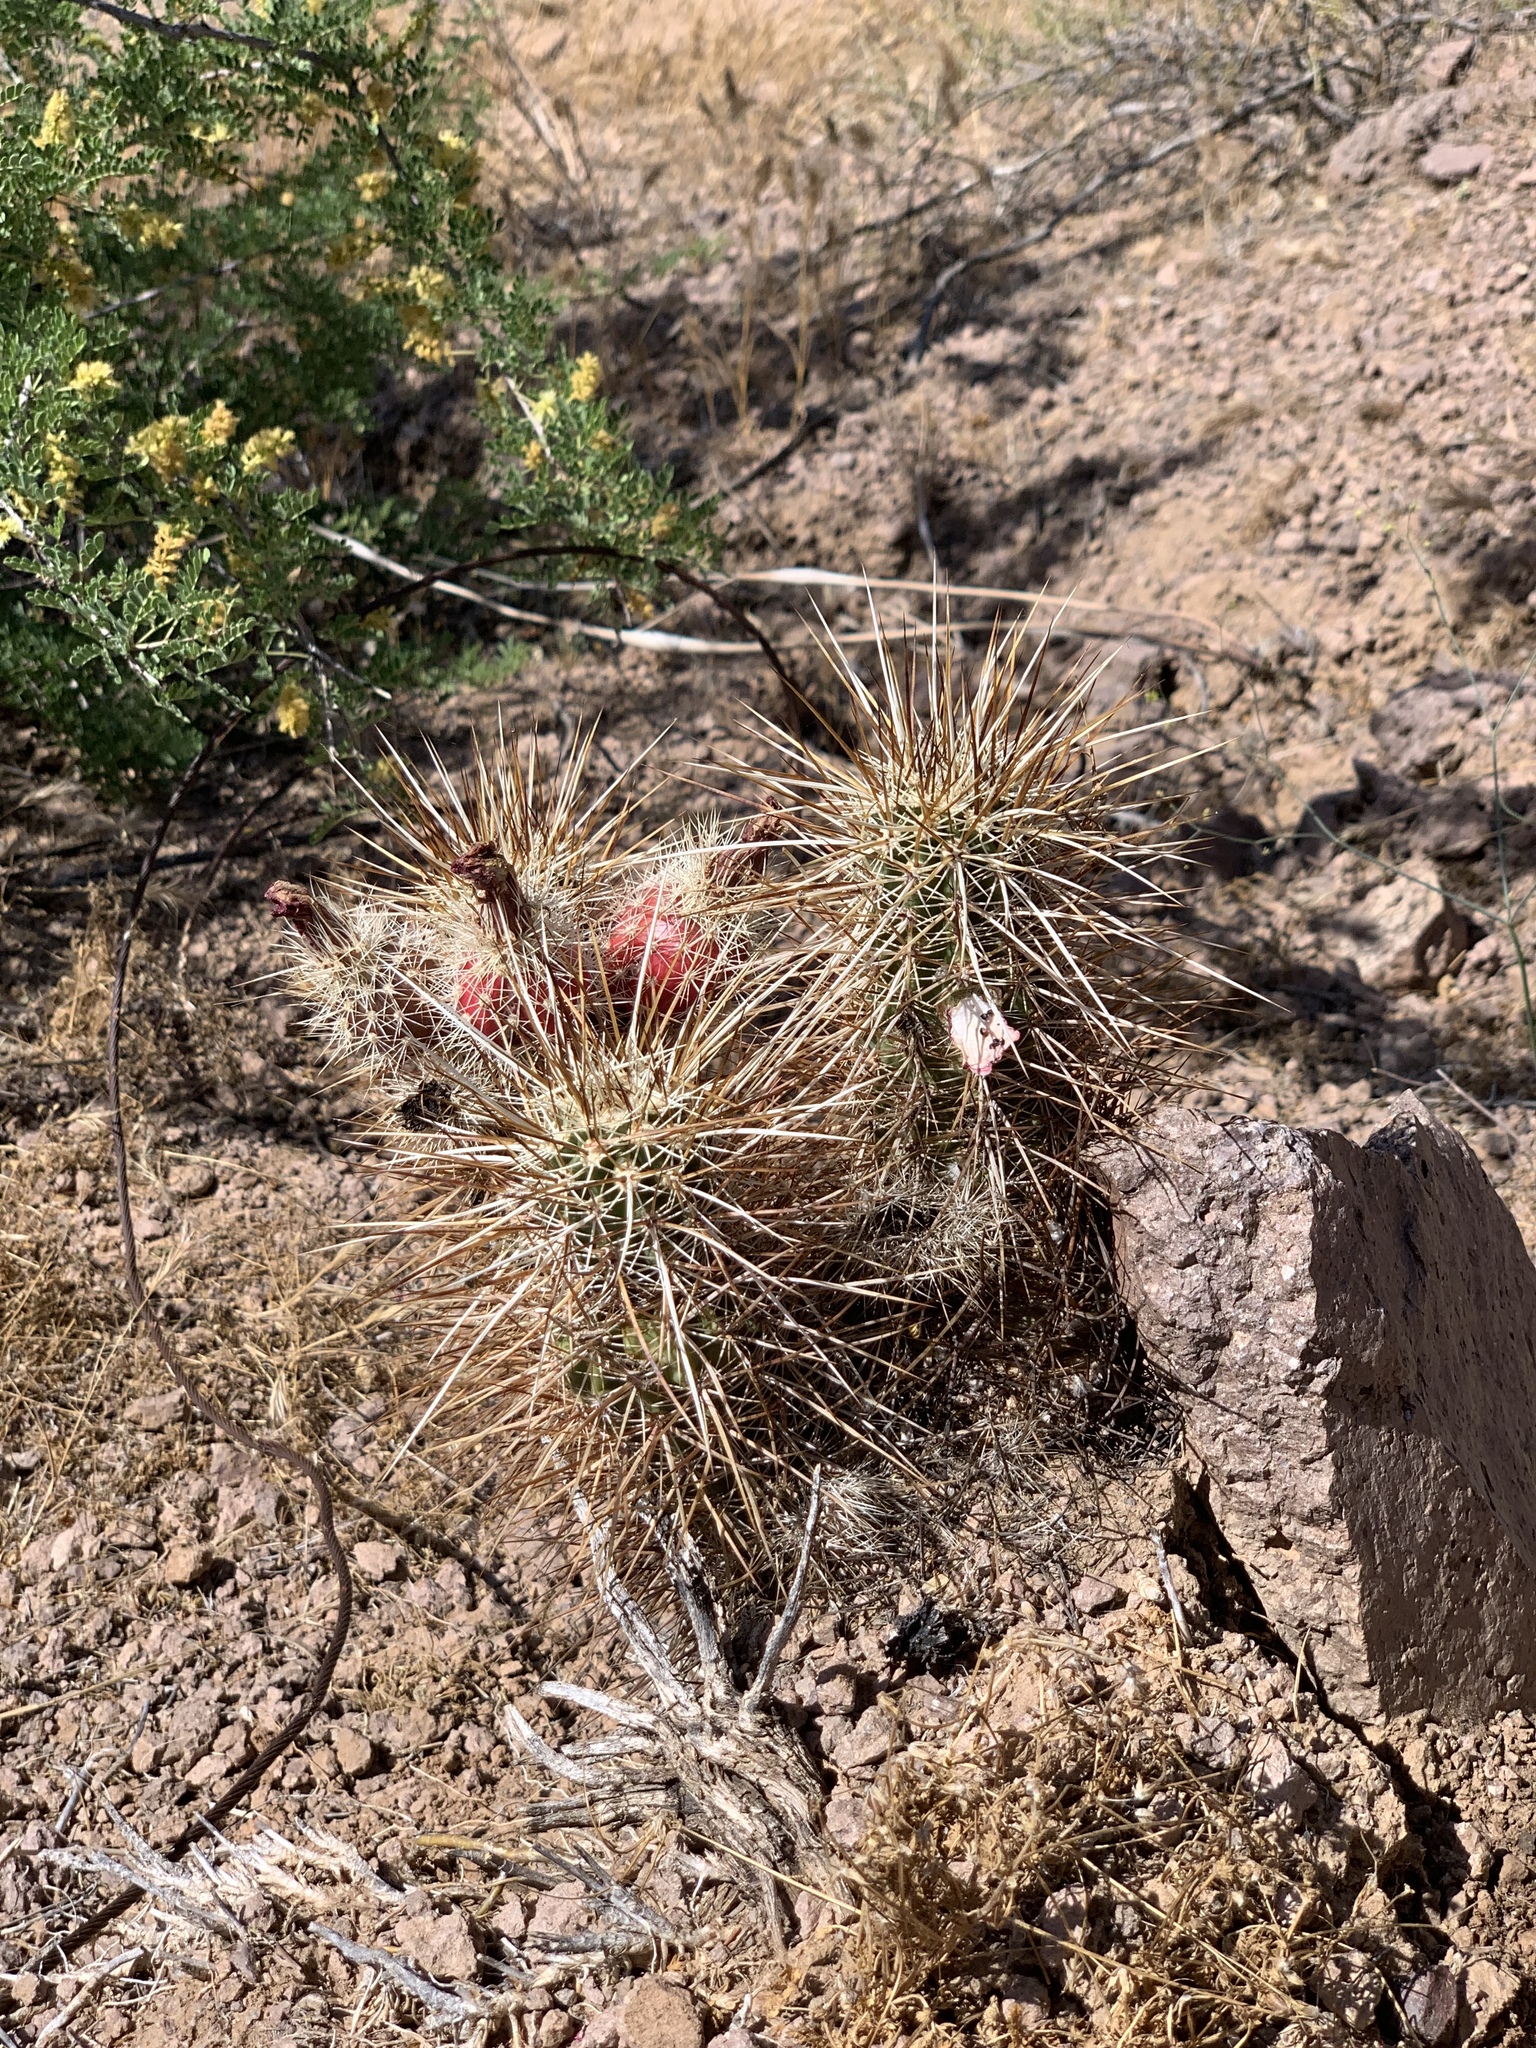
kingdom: Plantae
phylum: Tracheophyta
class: Magnoliopsida
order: Caryophyllales
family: Cactaceae
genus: Echinocereus
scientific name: Echinocereus engelmannii
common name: Engelmann's hedgehog cactus
